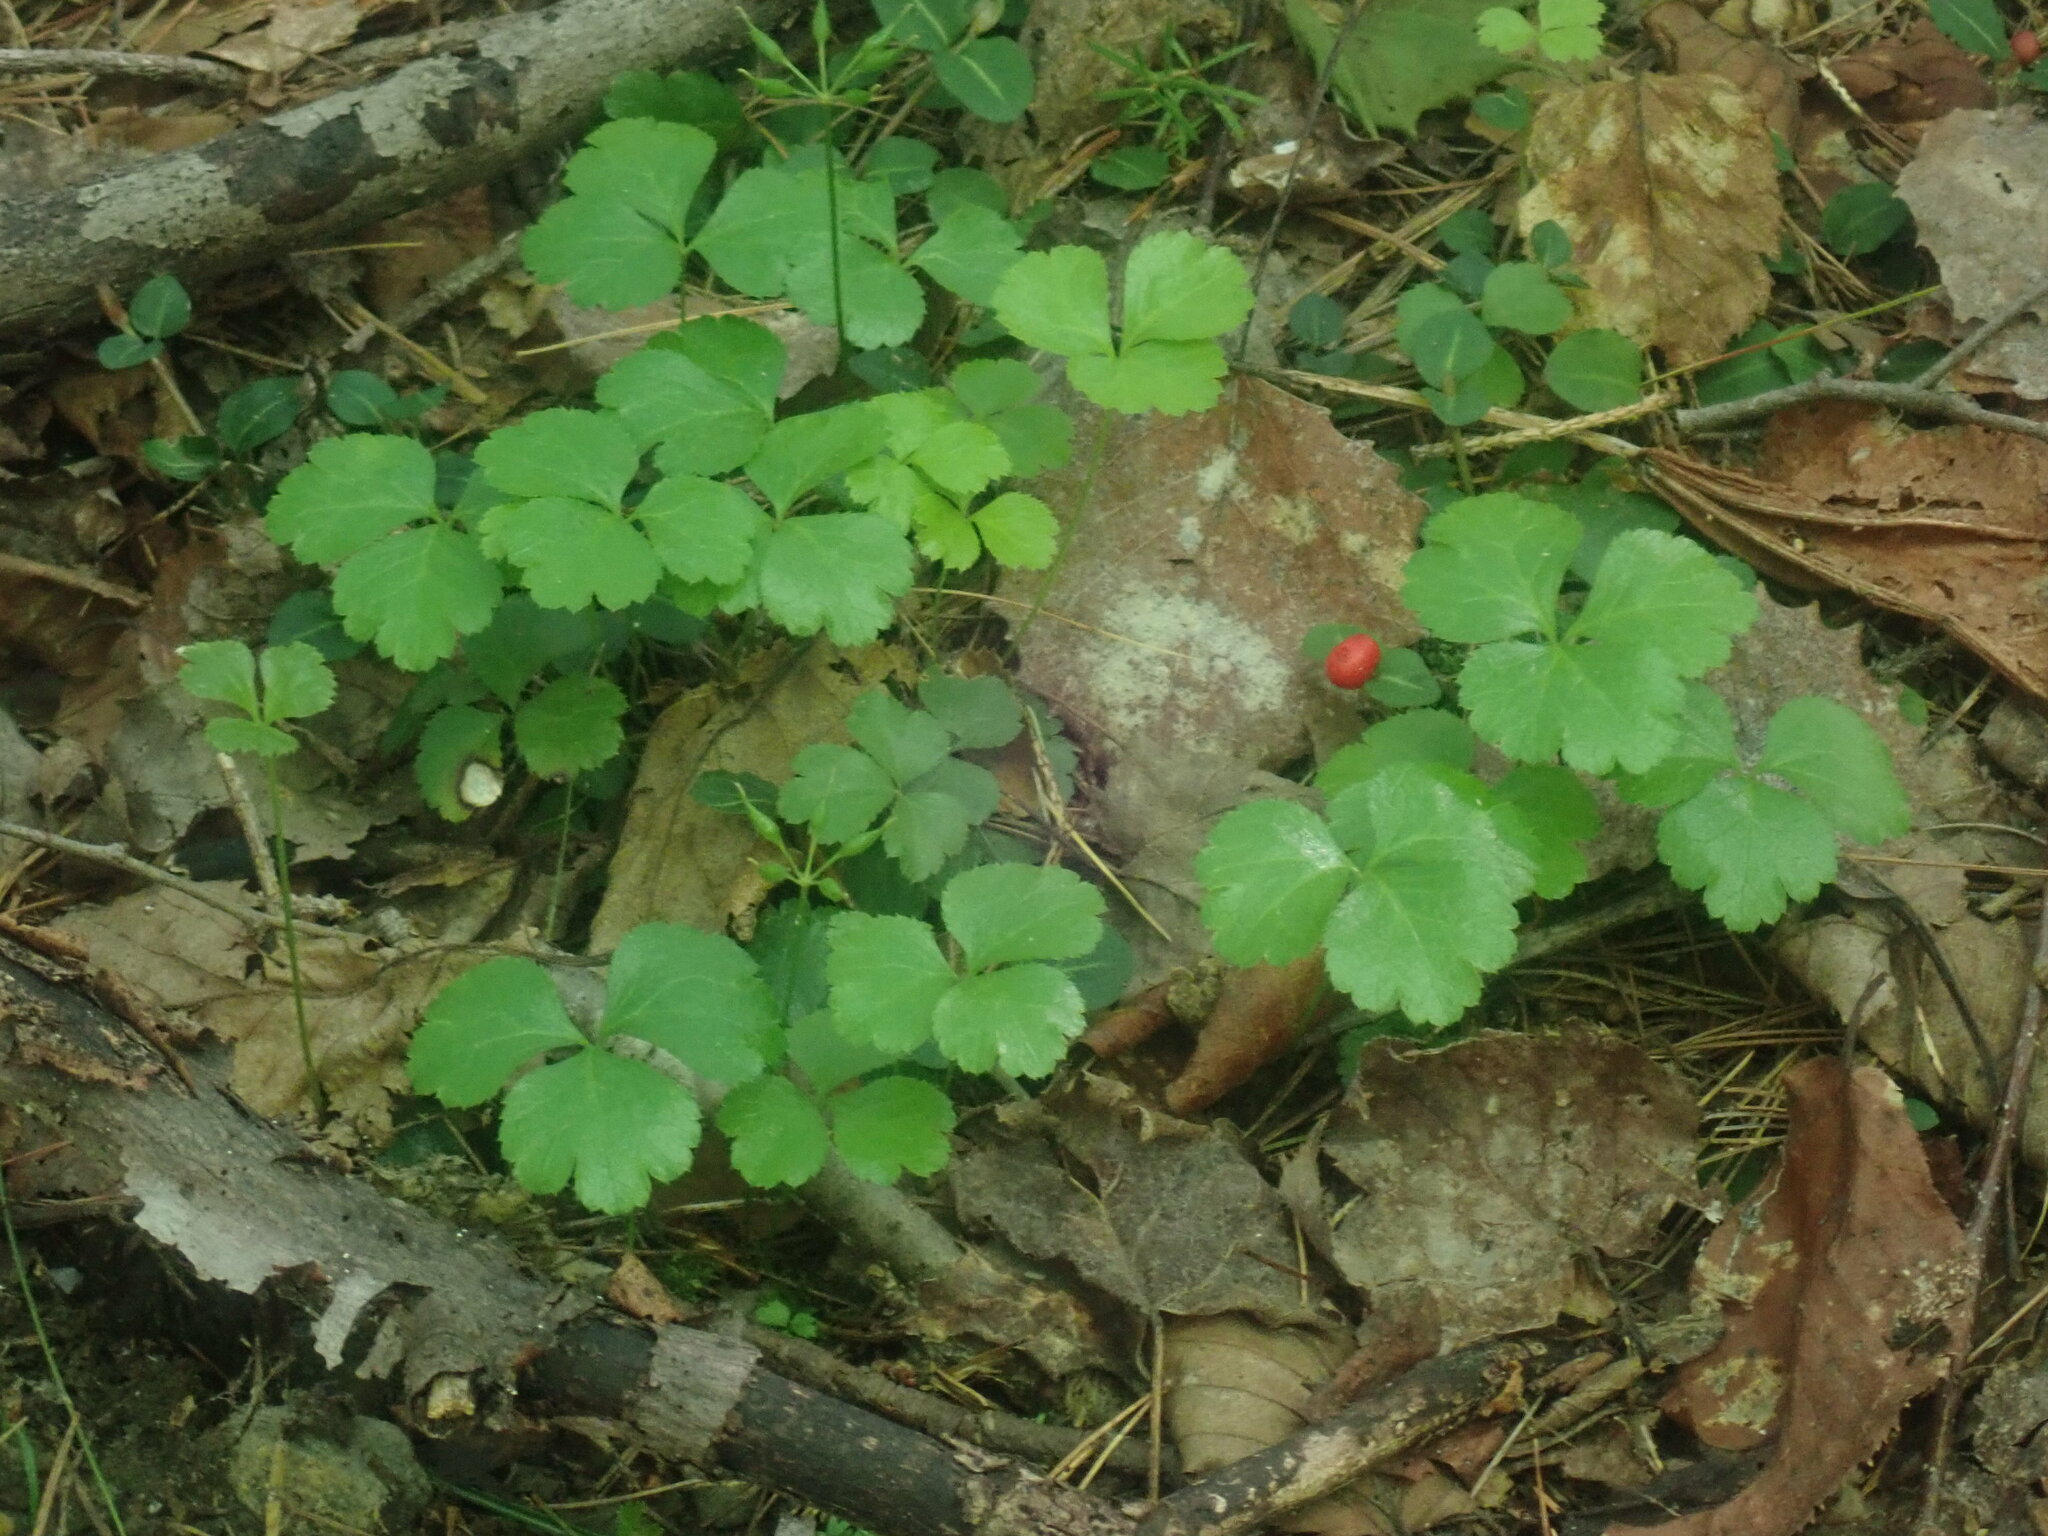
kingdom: Plantae
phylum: Tracheophyta
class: Magnoliopsida
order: Ranunculales
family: Ranunculaceae
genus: Coptis
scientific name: Coptis trifolia
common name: Canker-root
